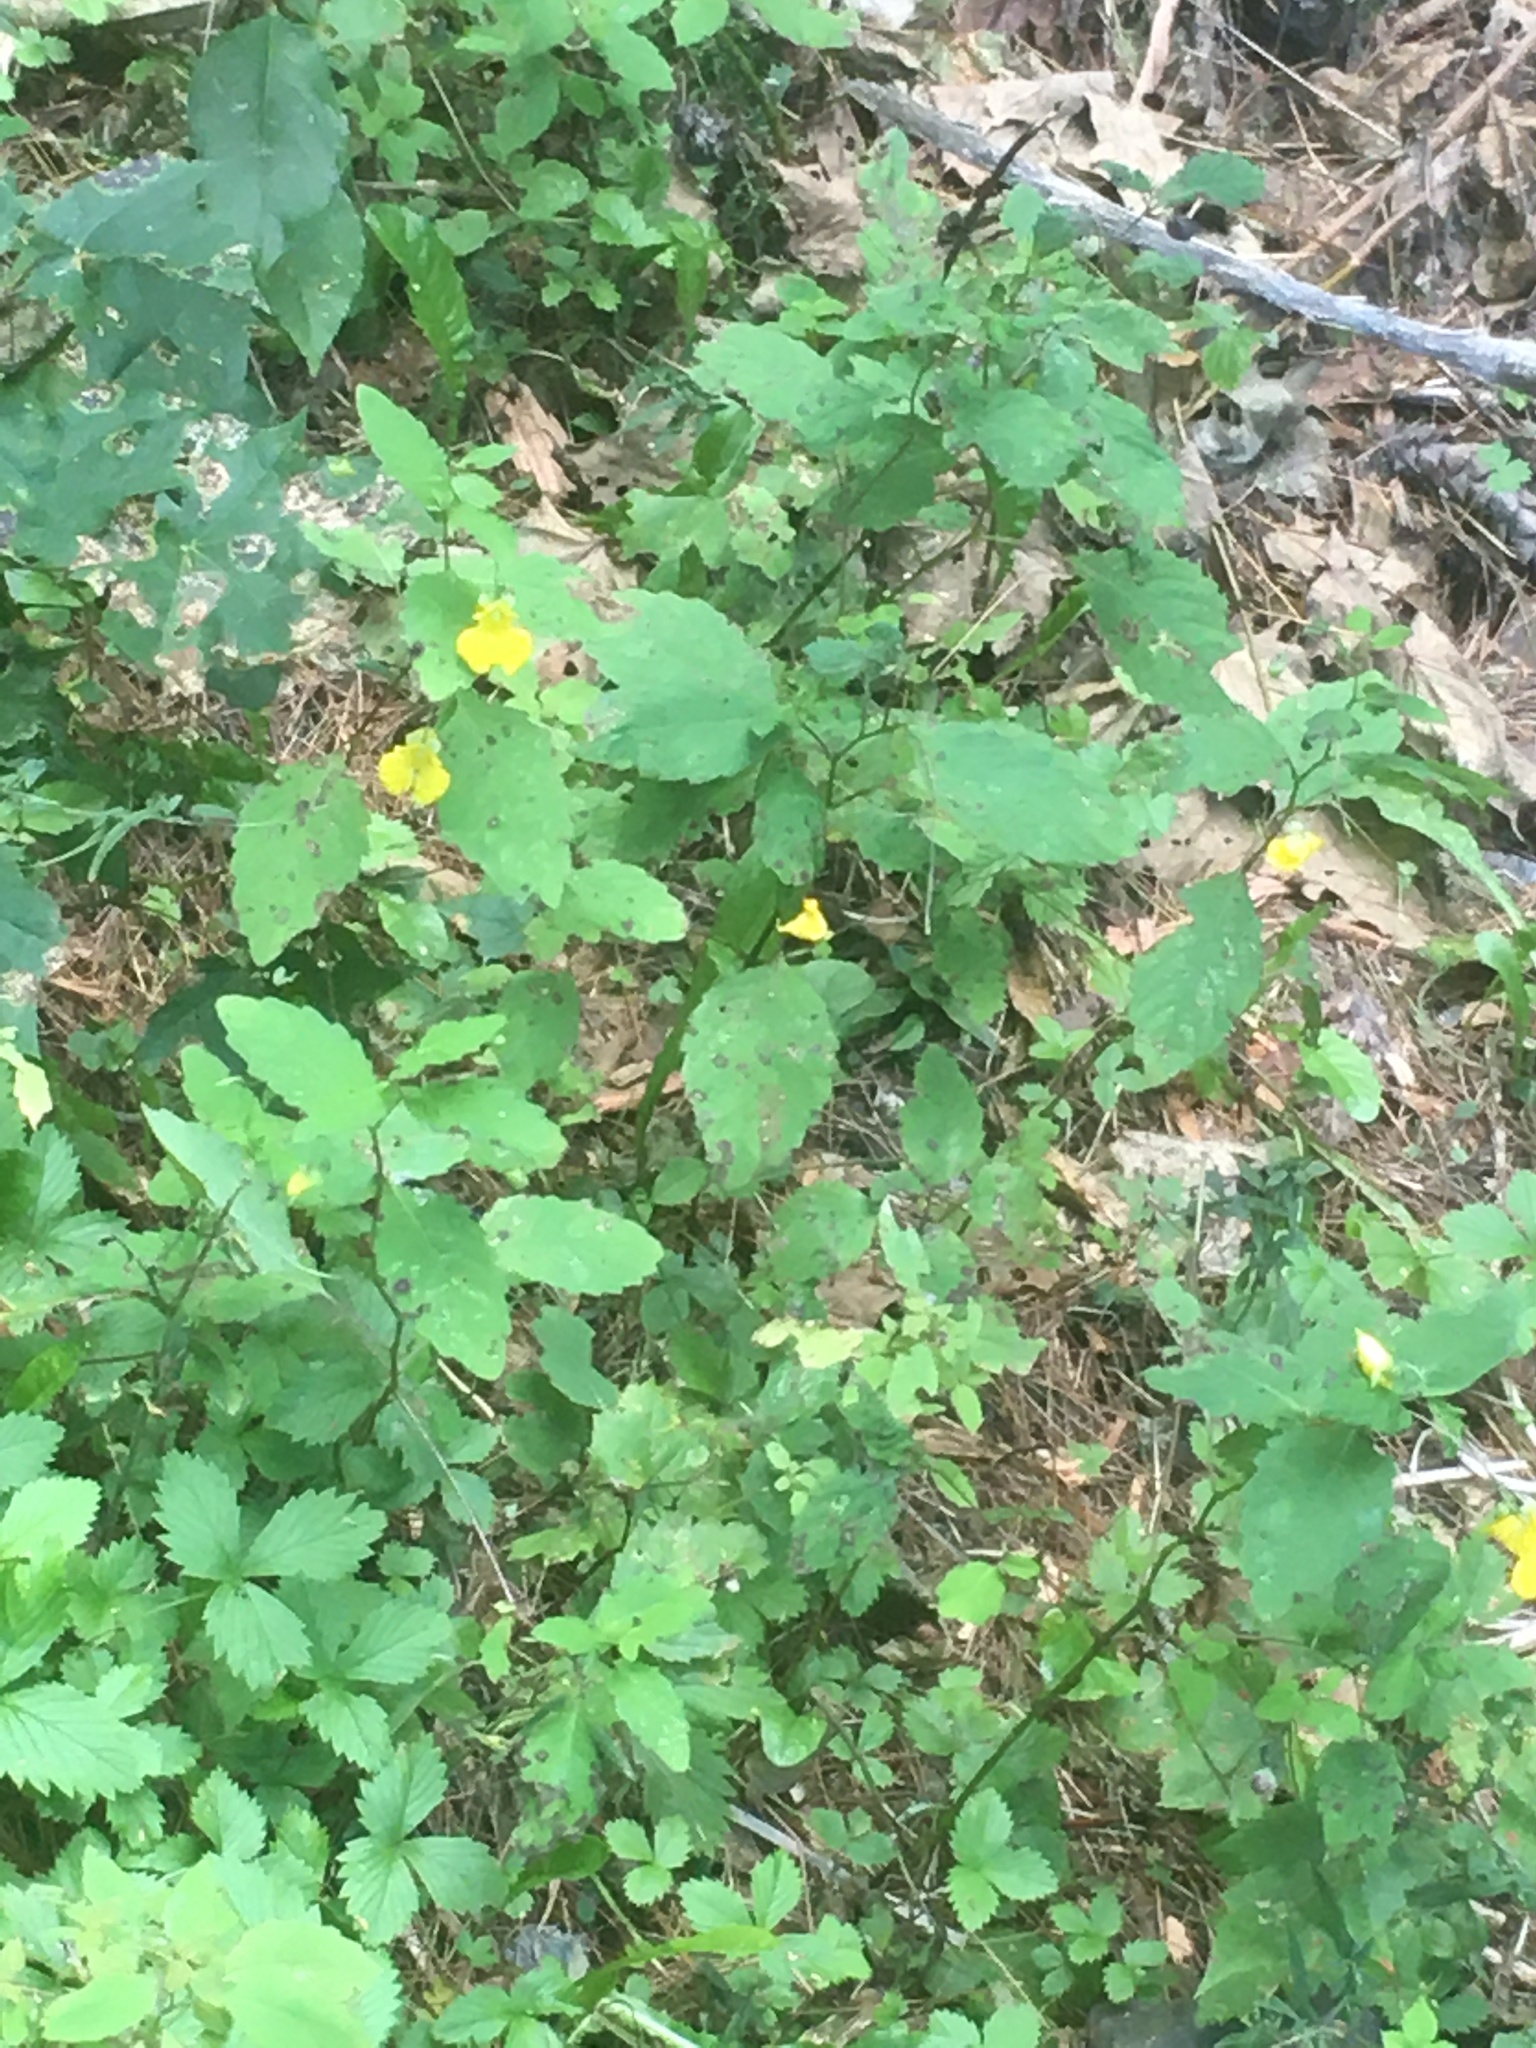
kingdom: Plantae
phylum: Tracheophyta
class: Magnoliopsida
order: Ericales
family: Balsaminaceae
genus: Impatiens
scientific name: Impatiens pallida
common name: Pale snapweed
